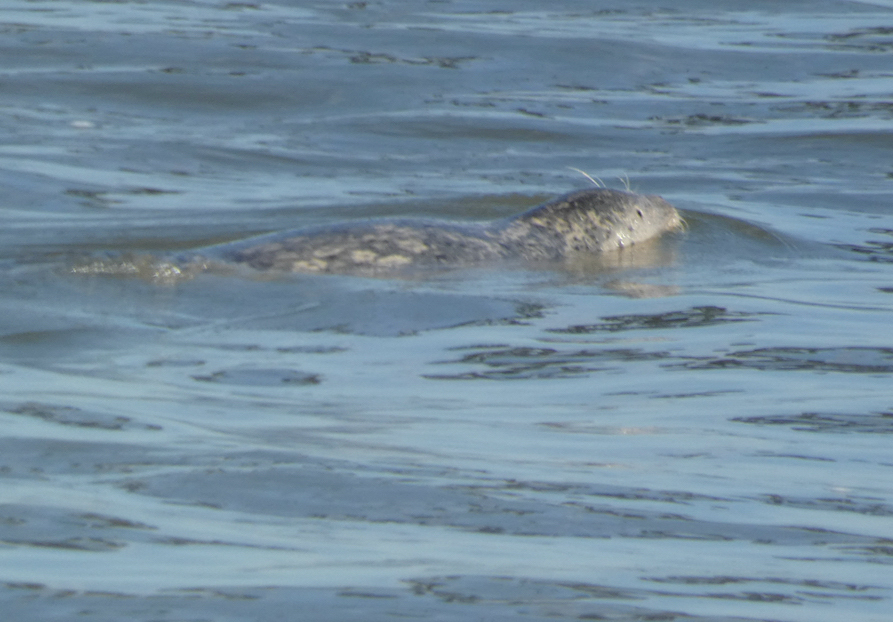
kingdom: Animalia
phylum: Chordata
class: Mammalia
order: Carnivora
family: Phocidae
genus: Phoca
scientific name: Phoca vitulina
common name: Harbor seal
